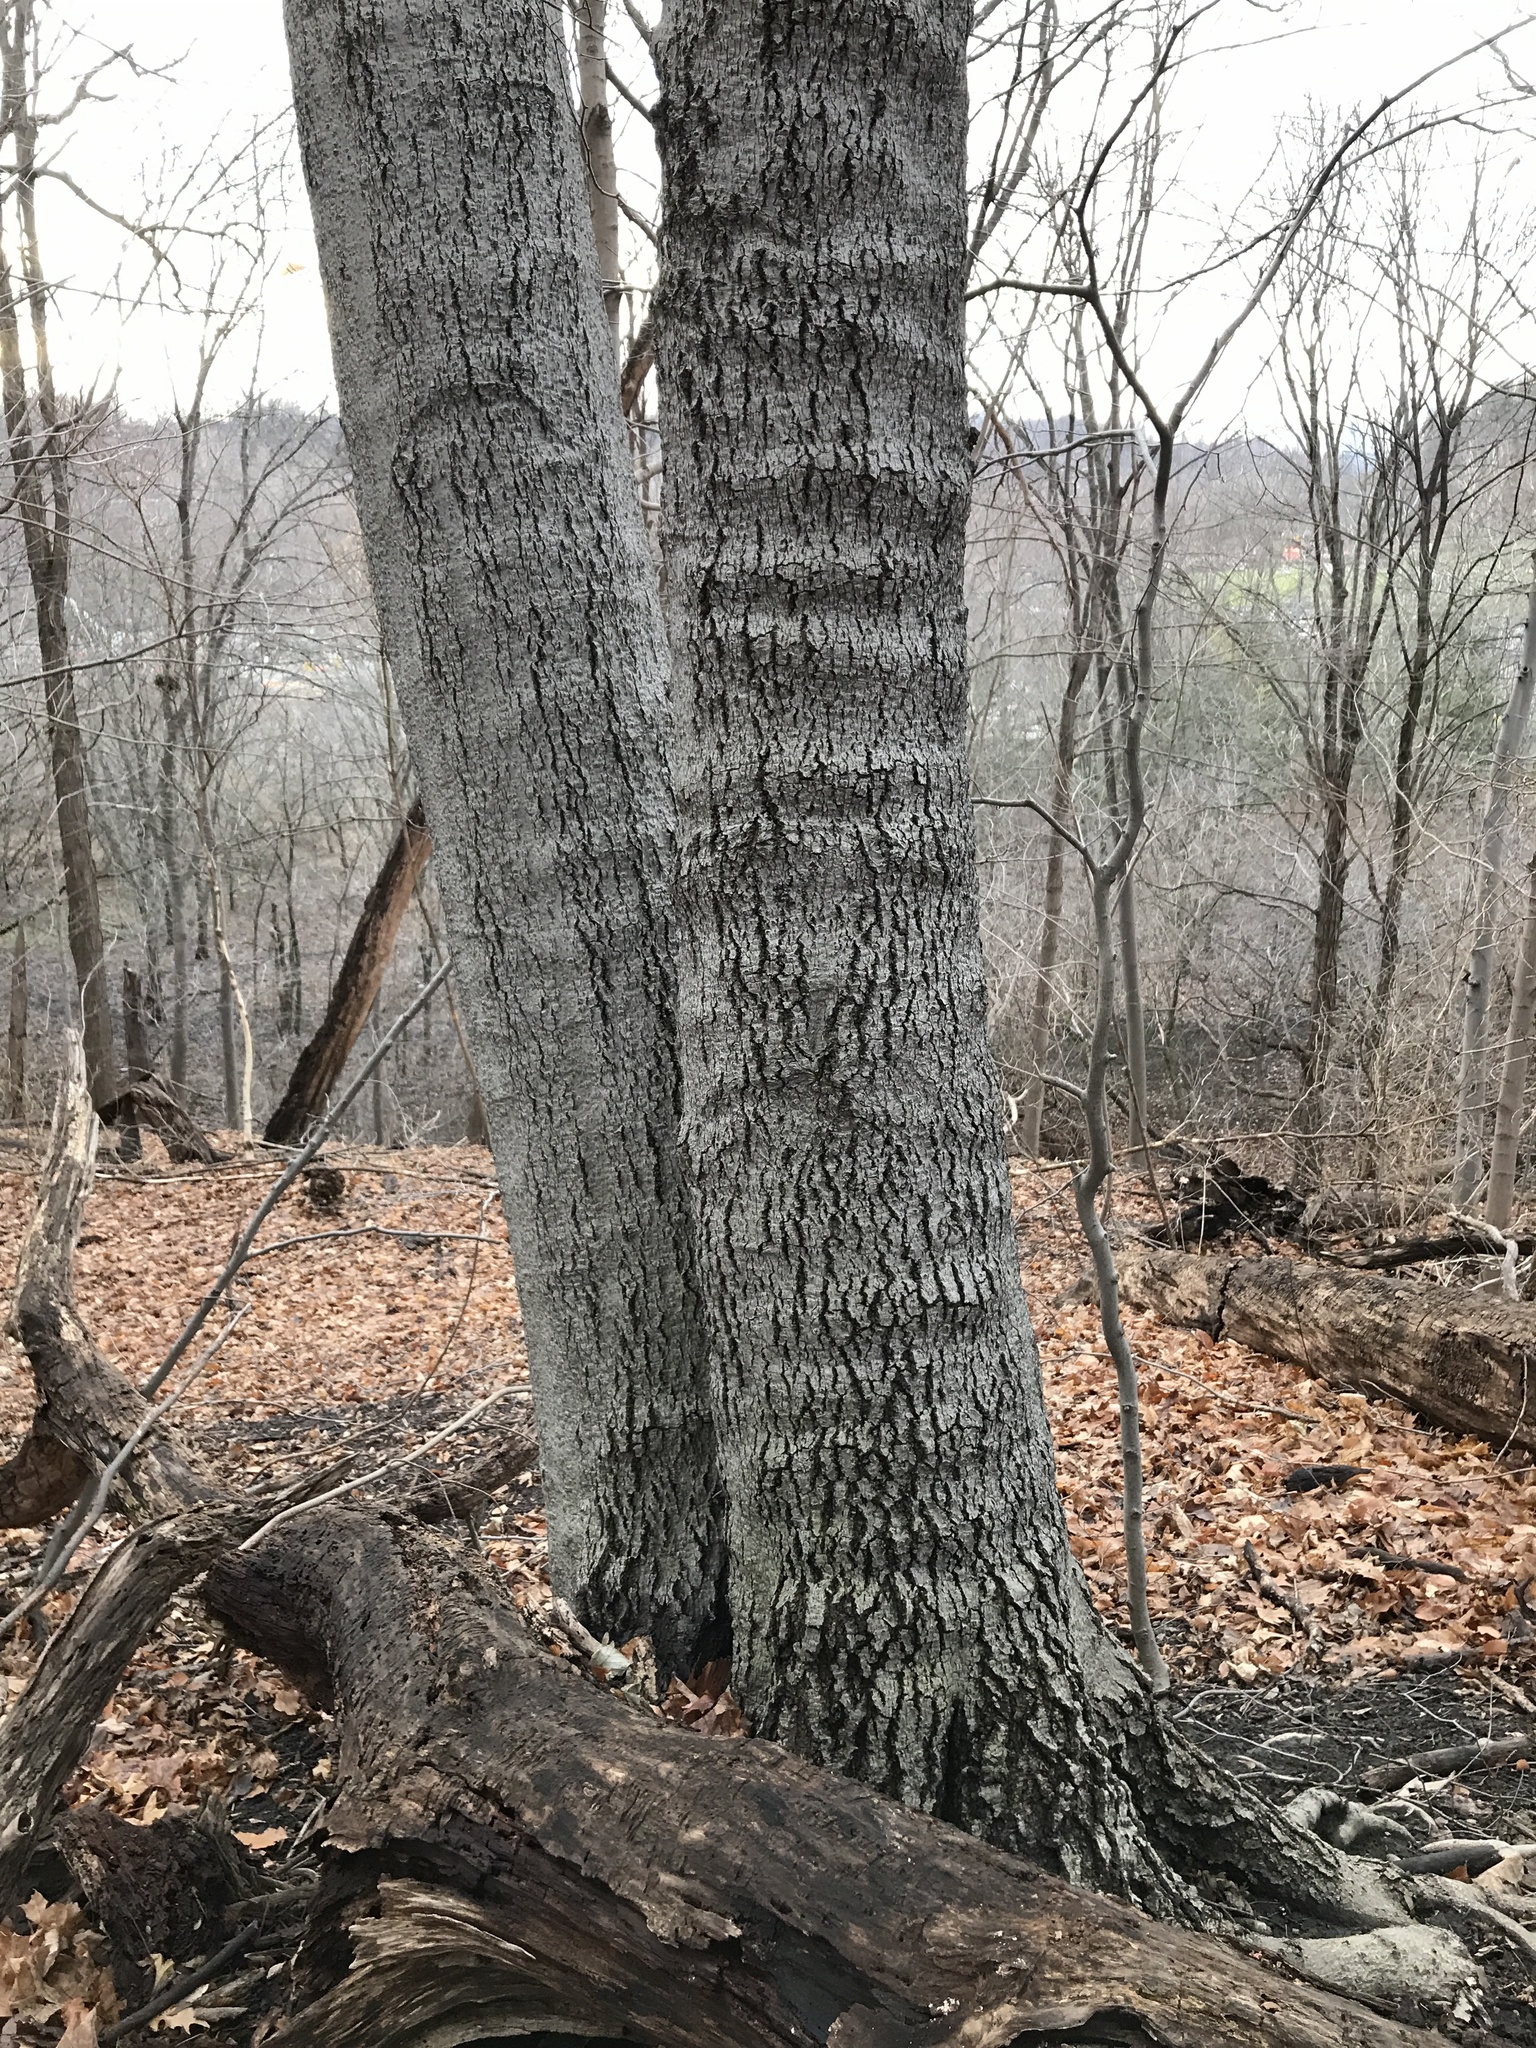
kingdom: Fungi
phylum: Ascomycota
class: Sordariomycetes
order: Hypocreales
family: Nectriaceae
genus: Neonectria
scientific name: Neonectria faginata
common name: Beech bark canker
